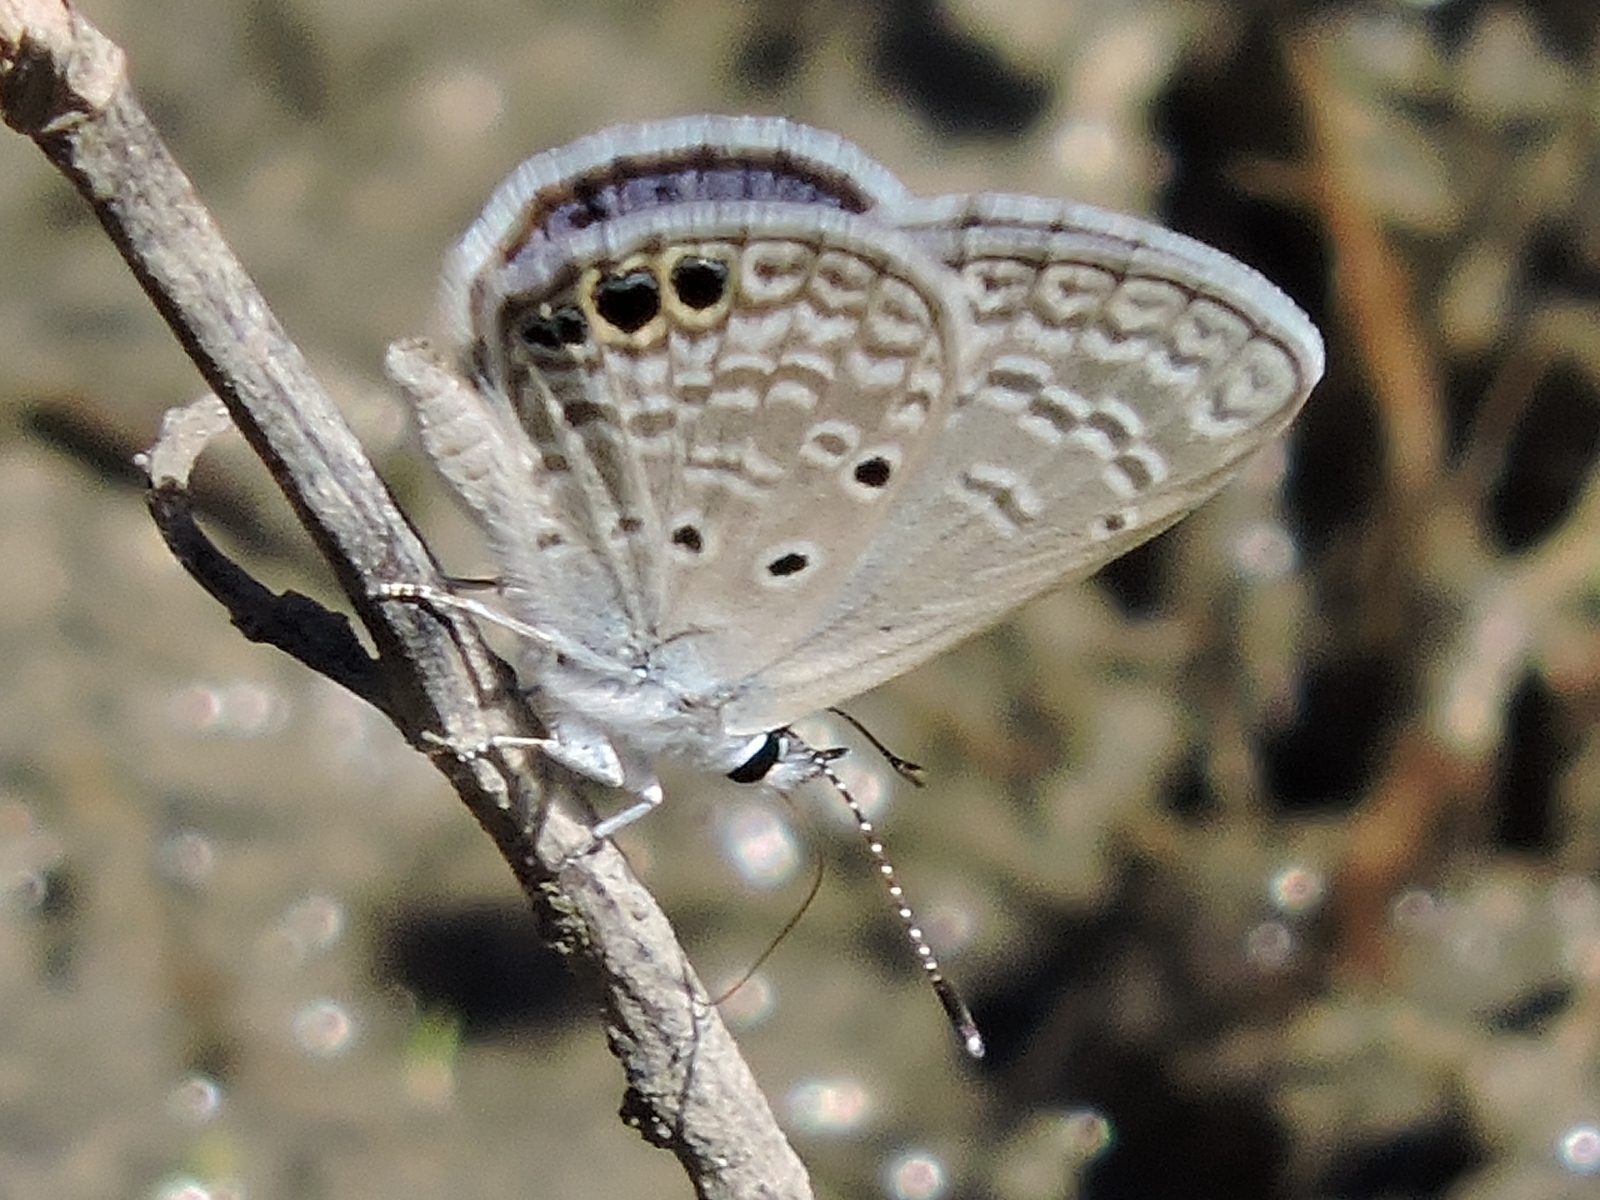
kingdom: Animalia
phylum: Arthropoda
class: Insecta
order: Lepidoptera
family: Lycaenidae
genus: Hemiargus
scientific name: Hemiargus ceraunus
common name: Ceraunus blue
